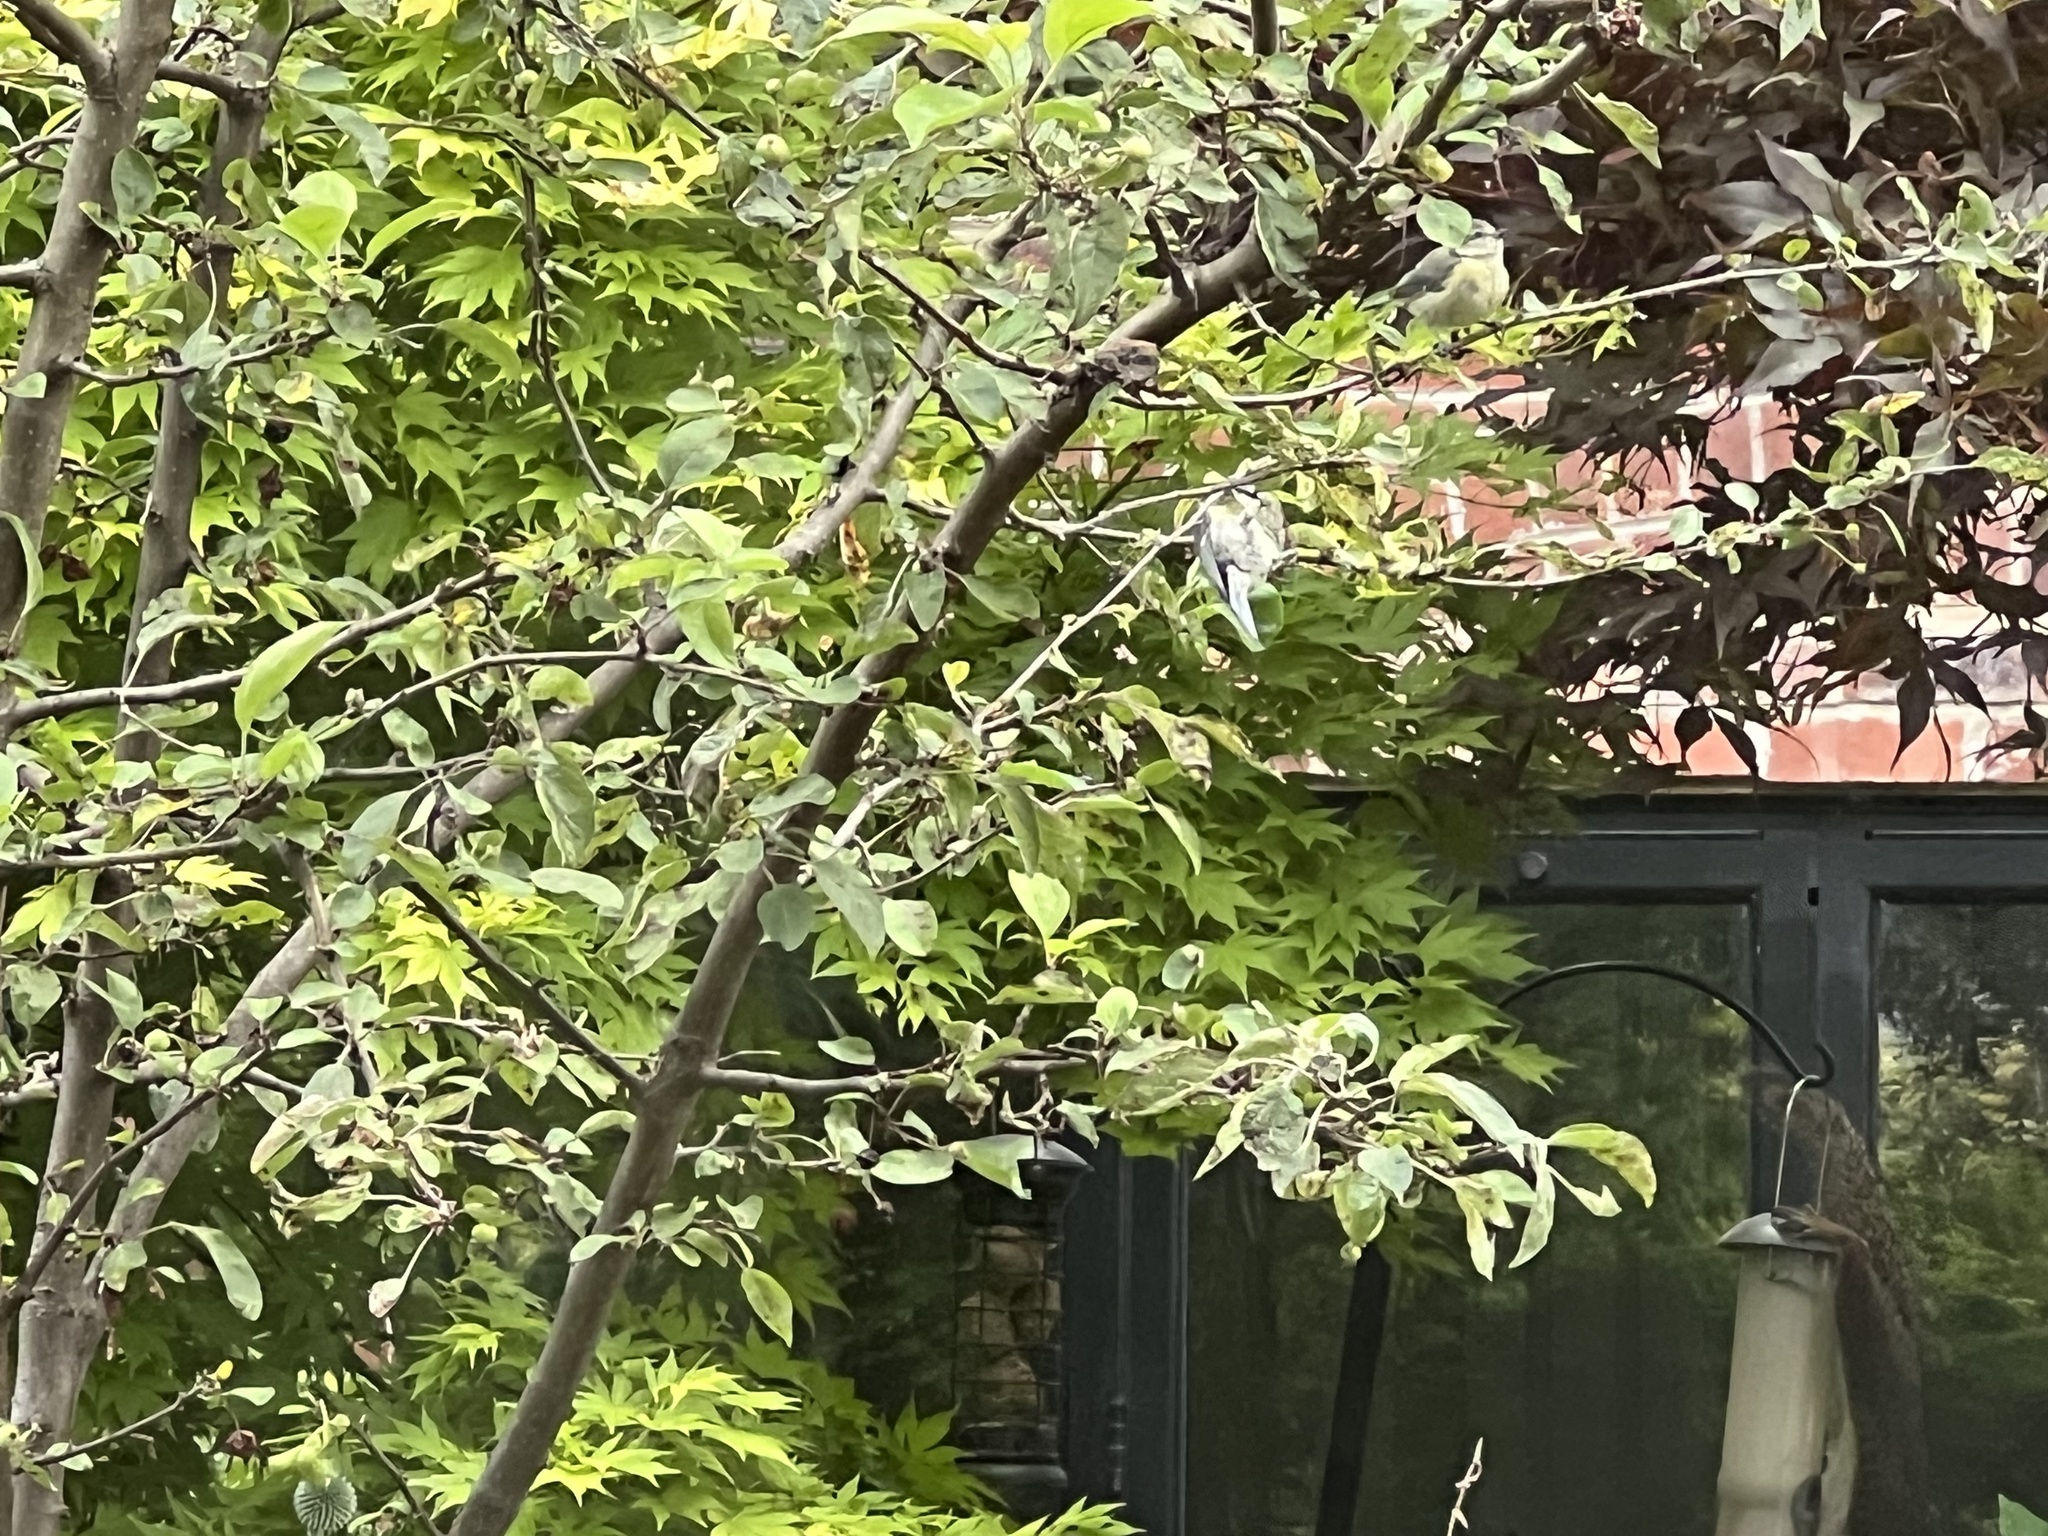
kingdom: Animalia
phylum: Chordata
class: Aves
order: Passeriformes
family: Paridae
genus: Cyanistes
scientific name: Cyanistes caeruleus
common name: Eurasian blue tit
